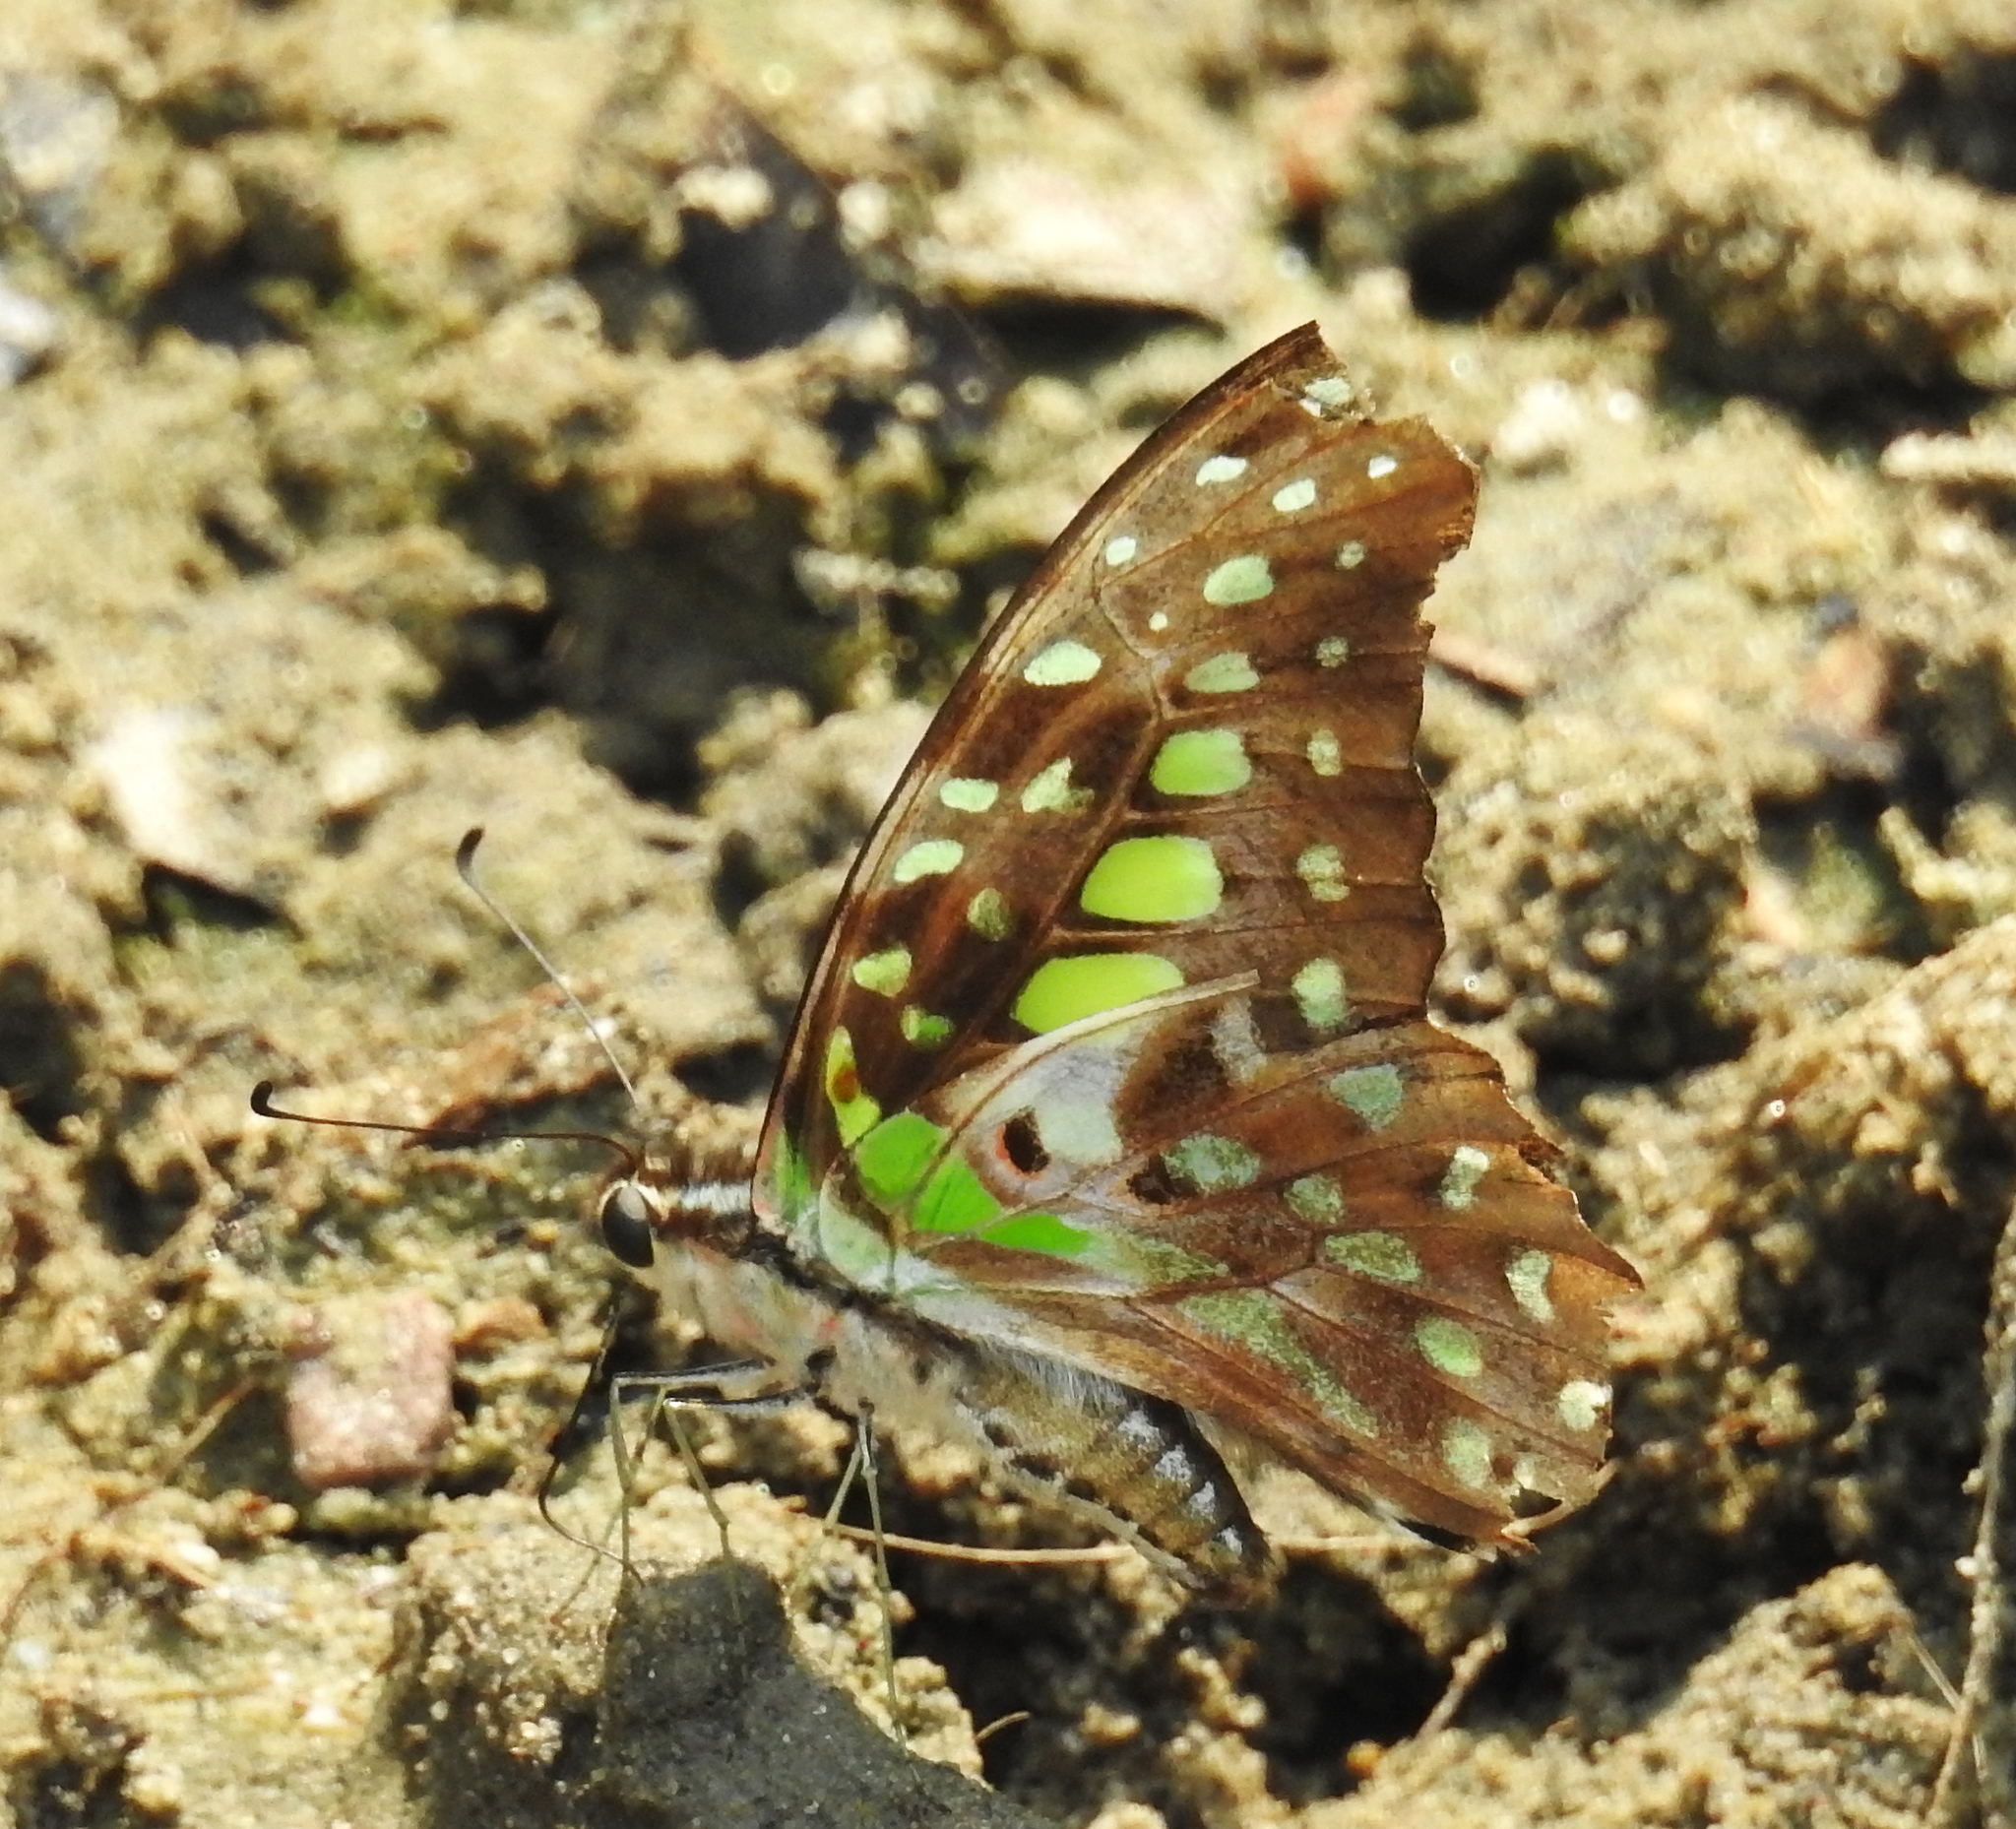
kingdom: Animalia
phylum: Arthropoda
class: Insecta
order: Lepidoptera
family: Papilionidae
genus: Graphium
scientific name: Graphium agamemnon
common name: Tailed jay
